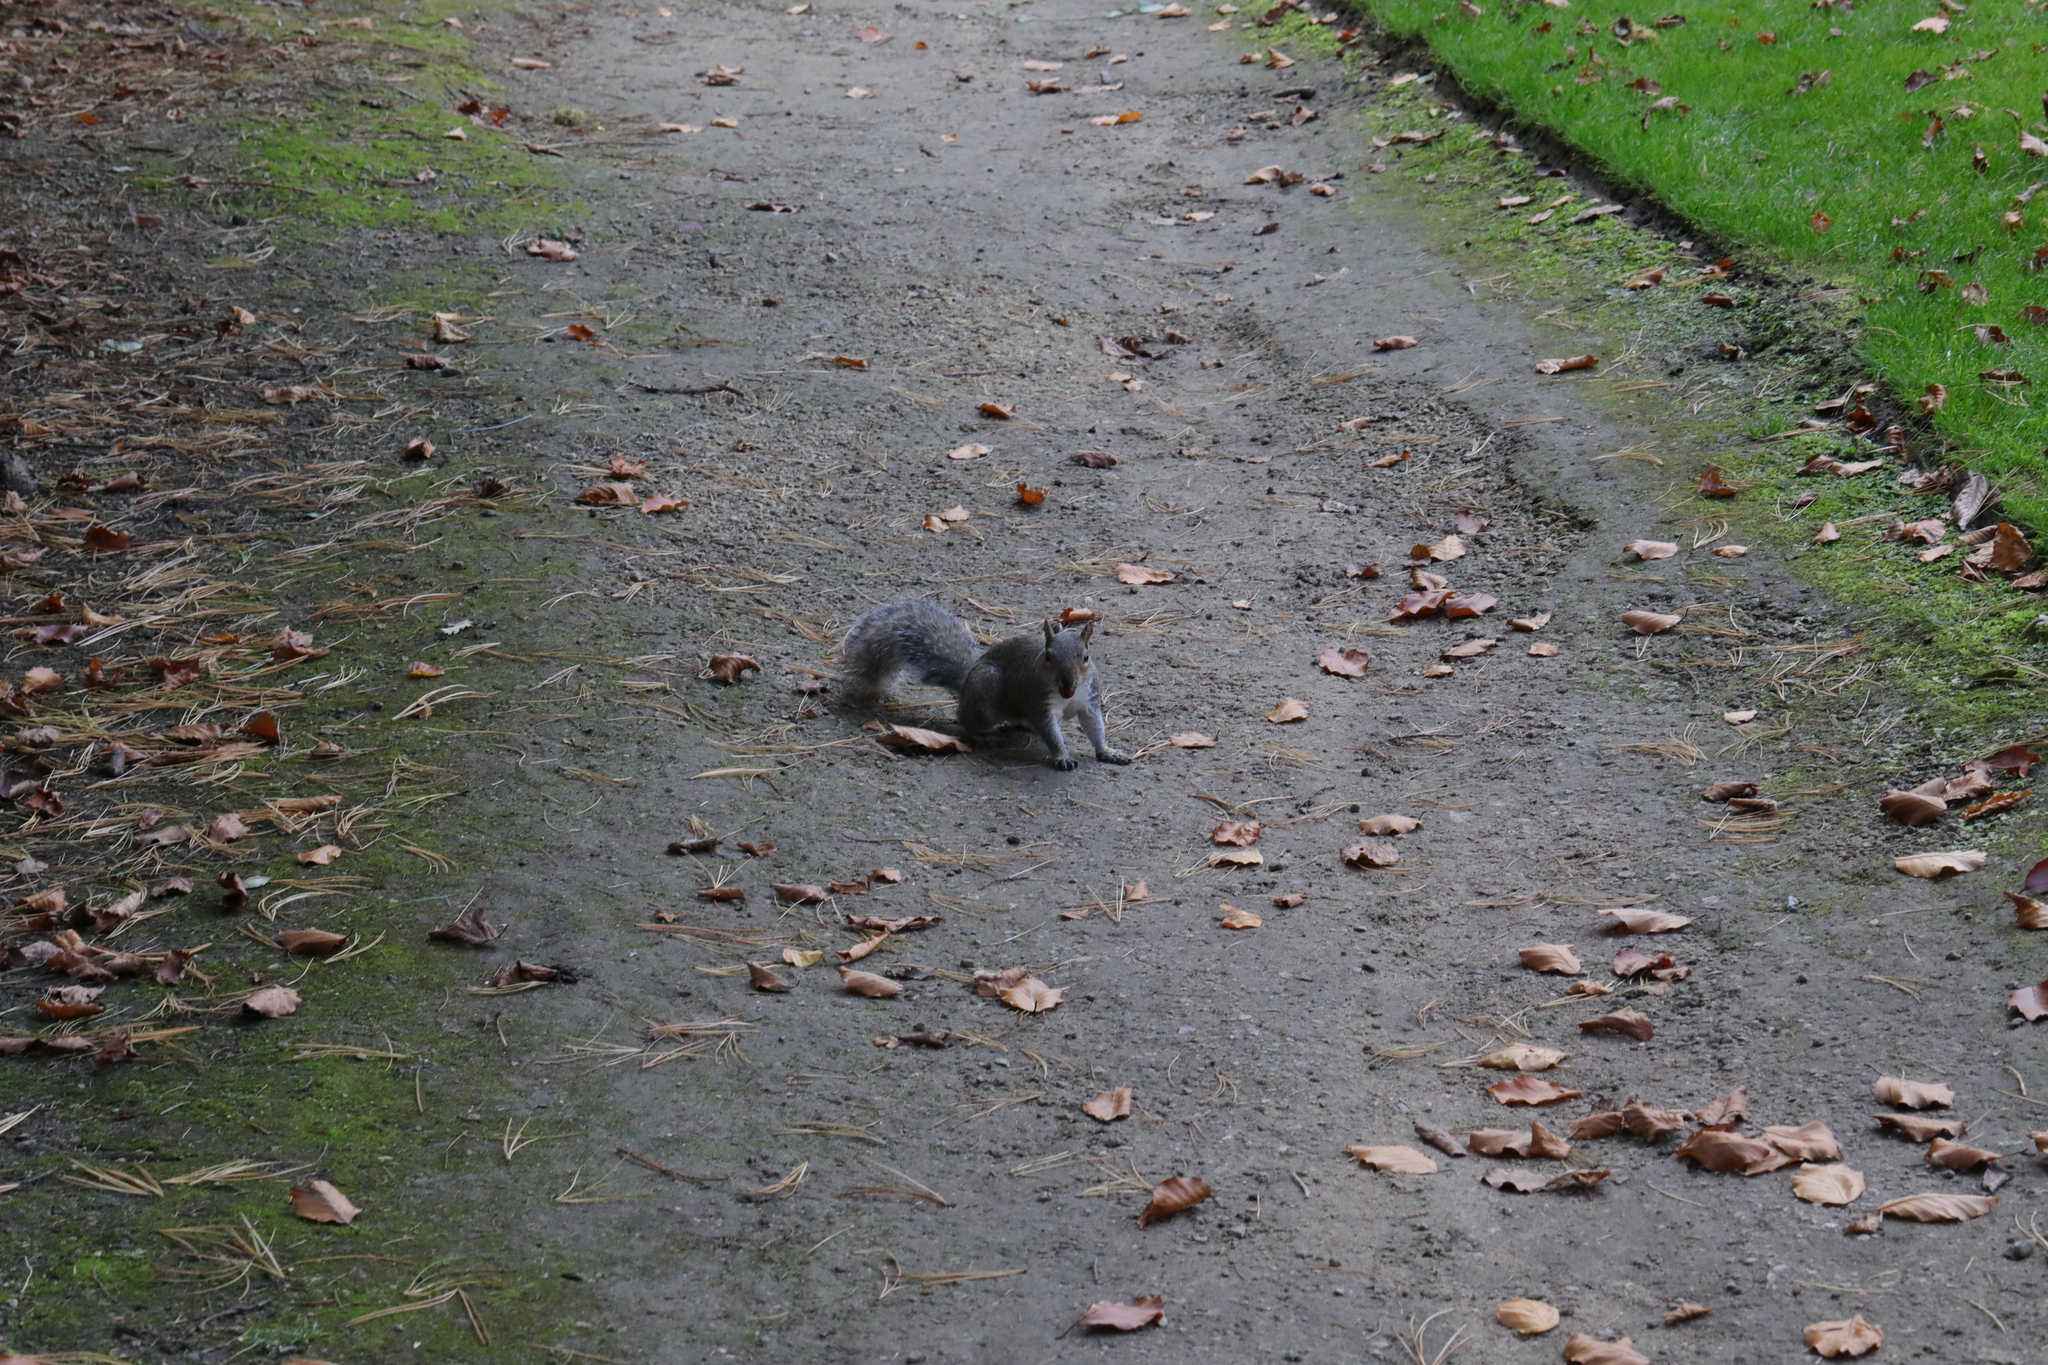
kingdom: Animalia
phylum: Chordata
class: Mammalia
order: Rodentia
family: Sciuridae
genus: Sciurus
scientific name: Sciurus carolinensis
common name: Eastern gray squirrel
